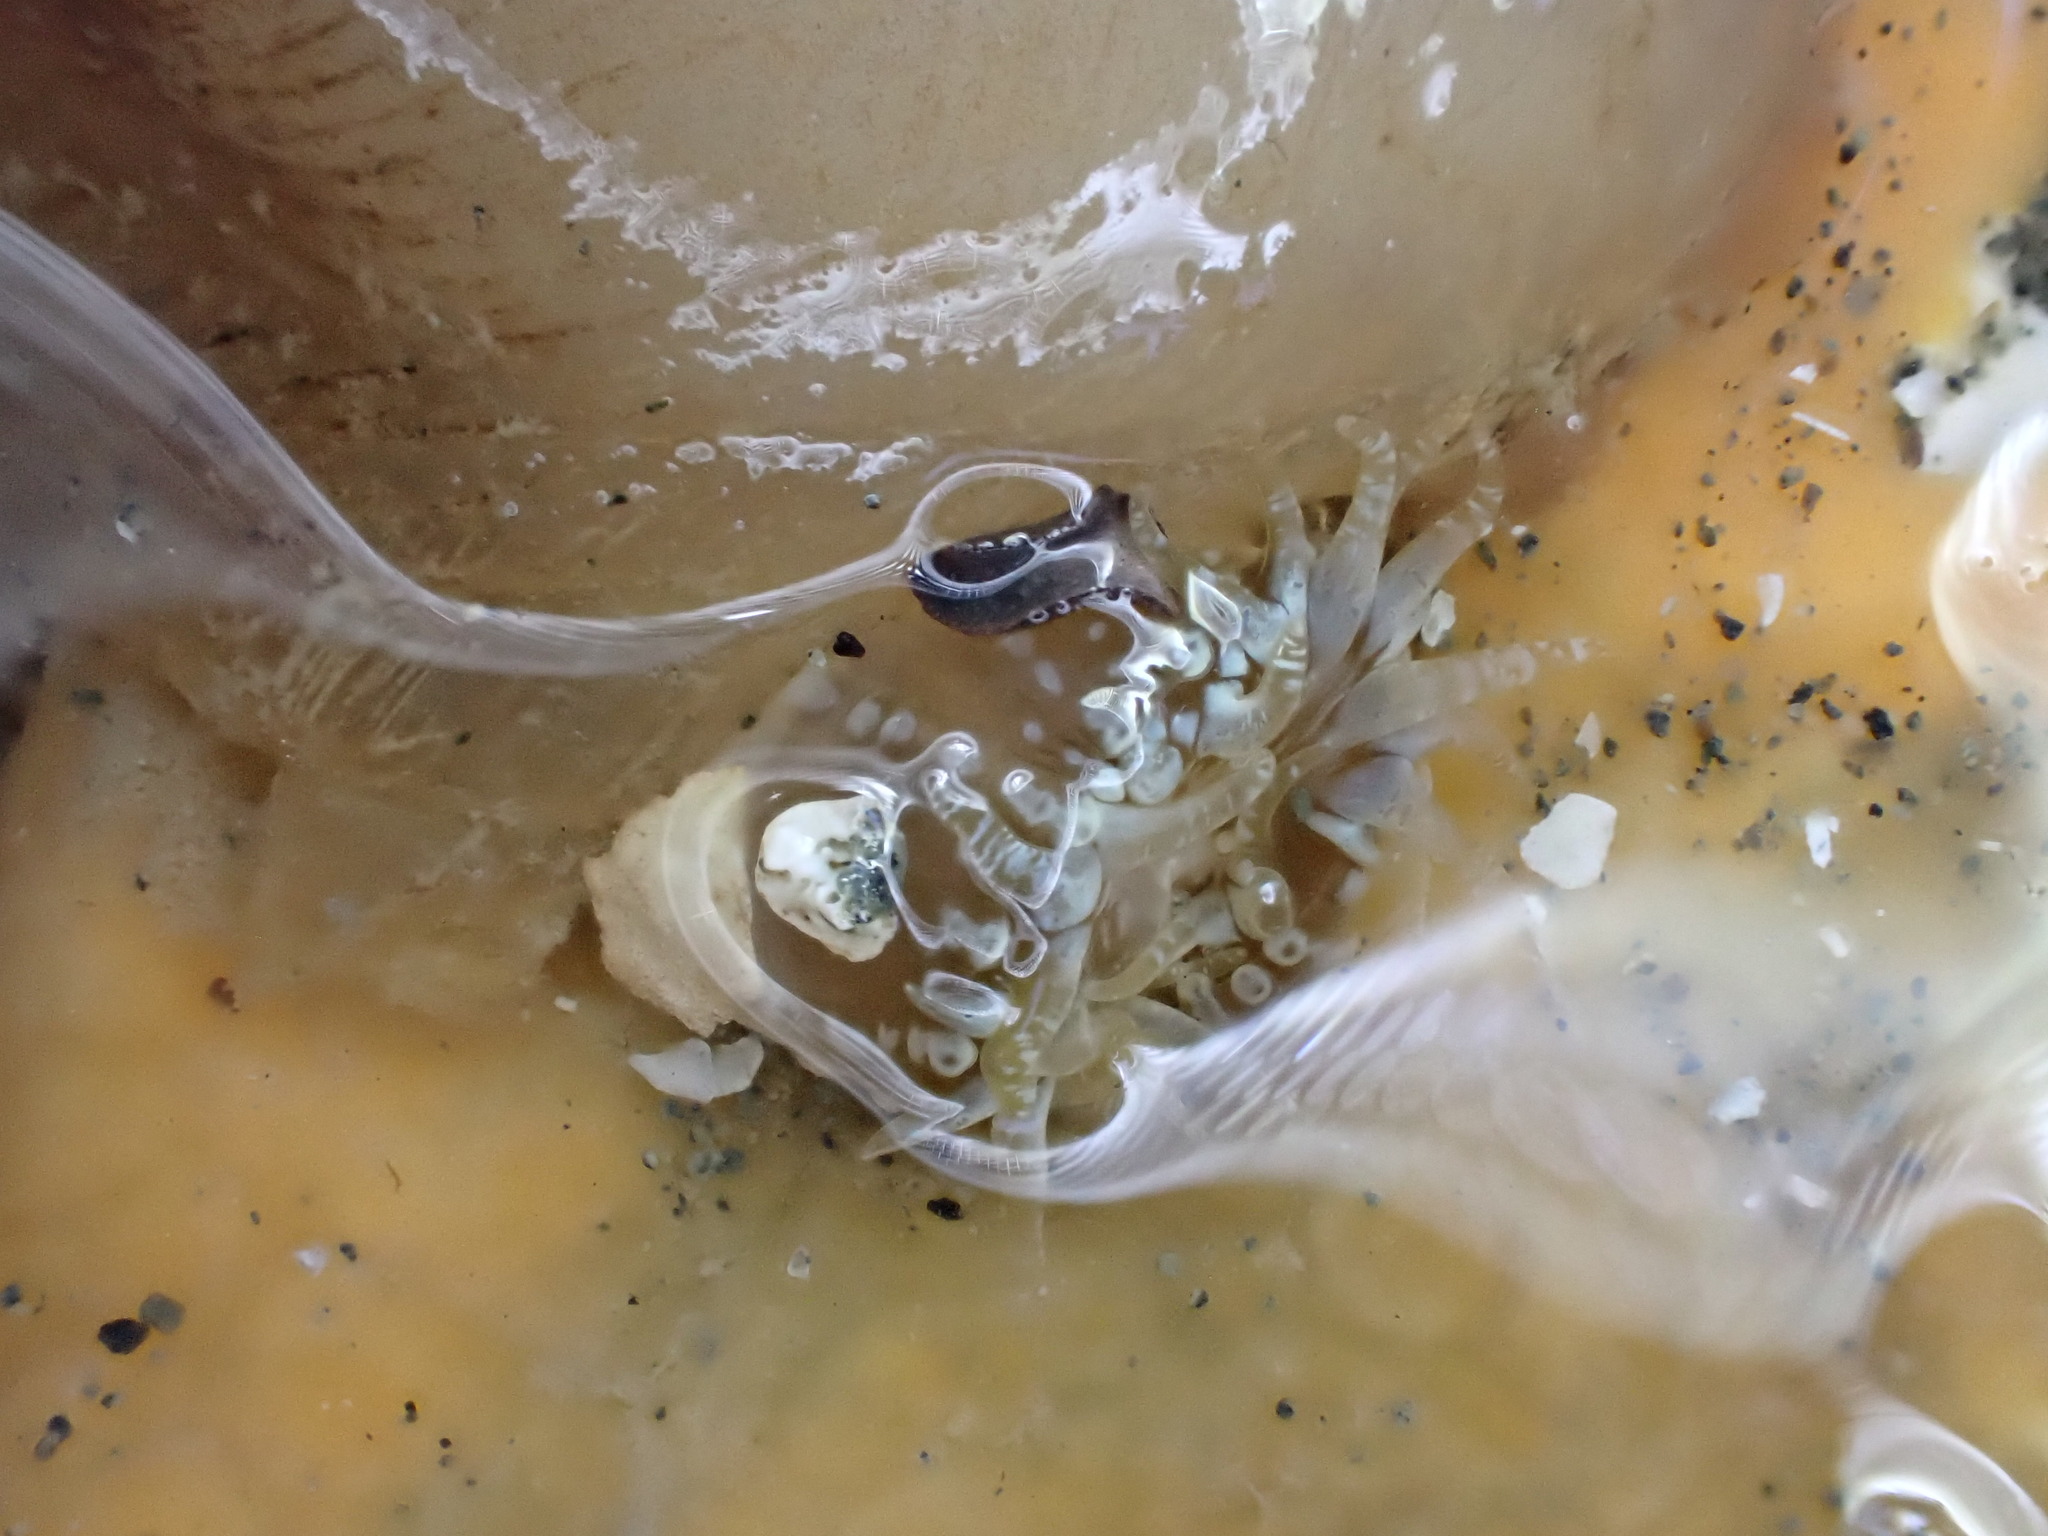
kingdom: Animalia
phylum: Cnidaria
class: Anthozoa
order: Actiniaria
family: Actiniidae
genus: Anthopleura
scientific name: Anthopleura hermaphroditica
